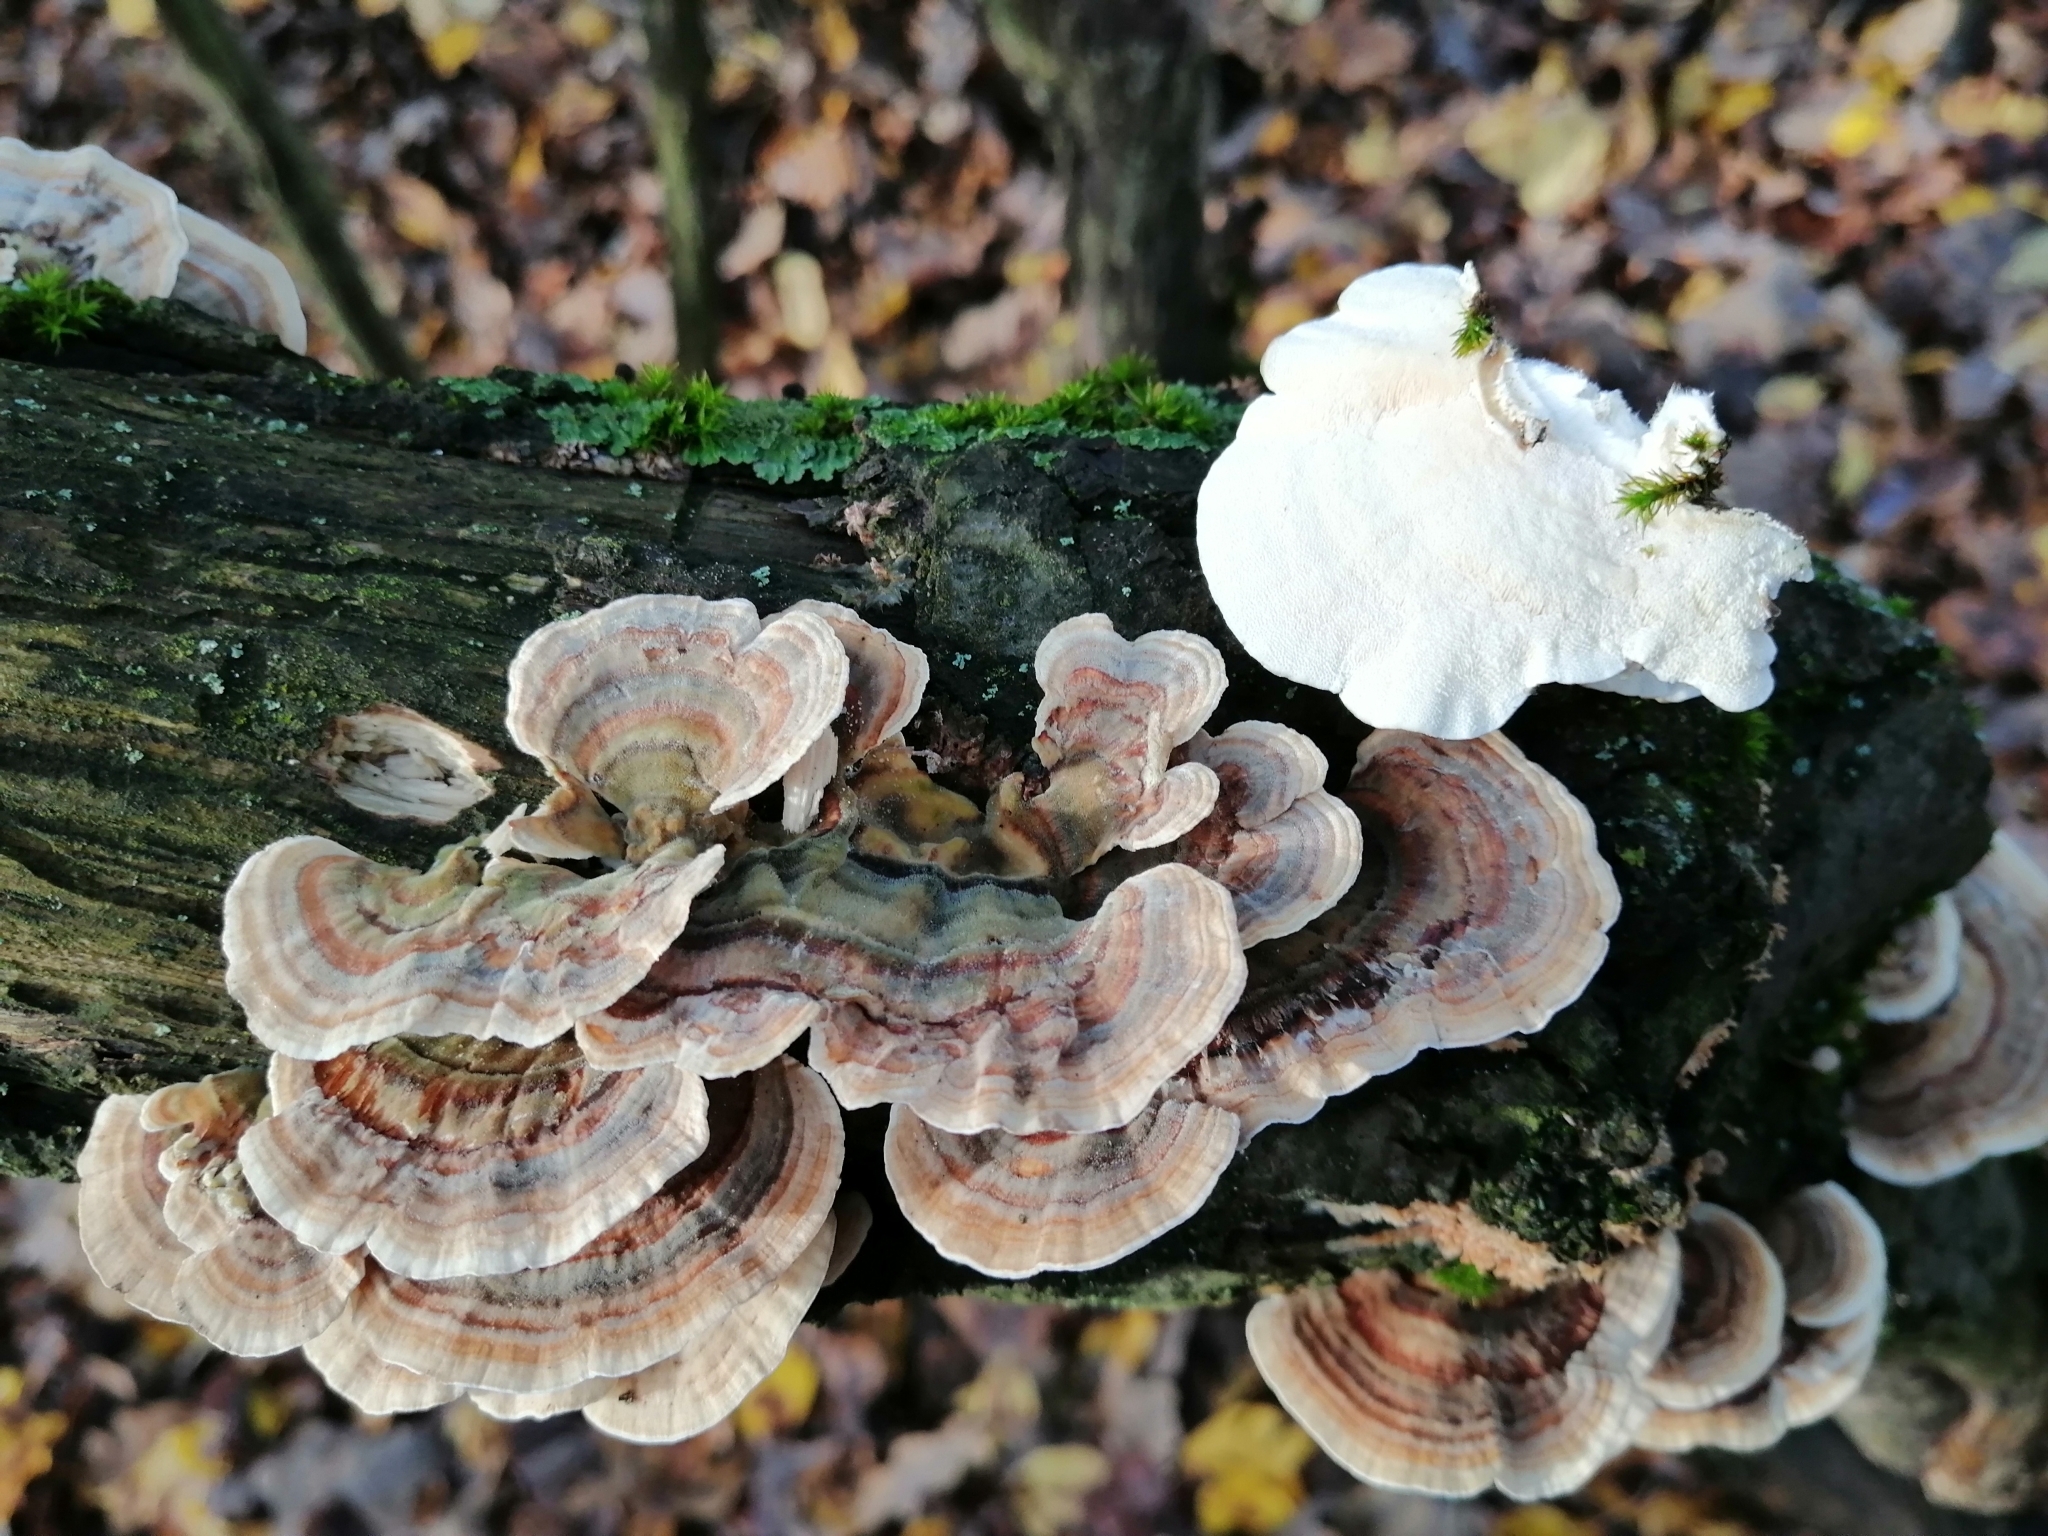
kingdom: Fungi
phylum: Basidiomycota
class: Agaricomycetes
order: Polyporales
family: Polyporaceae
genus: Trametes
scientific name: Trametes versicolor
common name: Turkeytail
